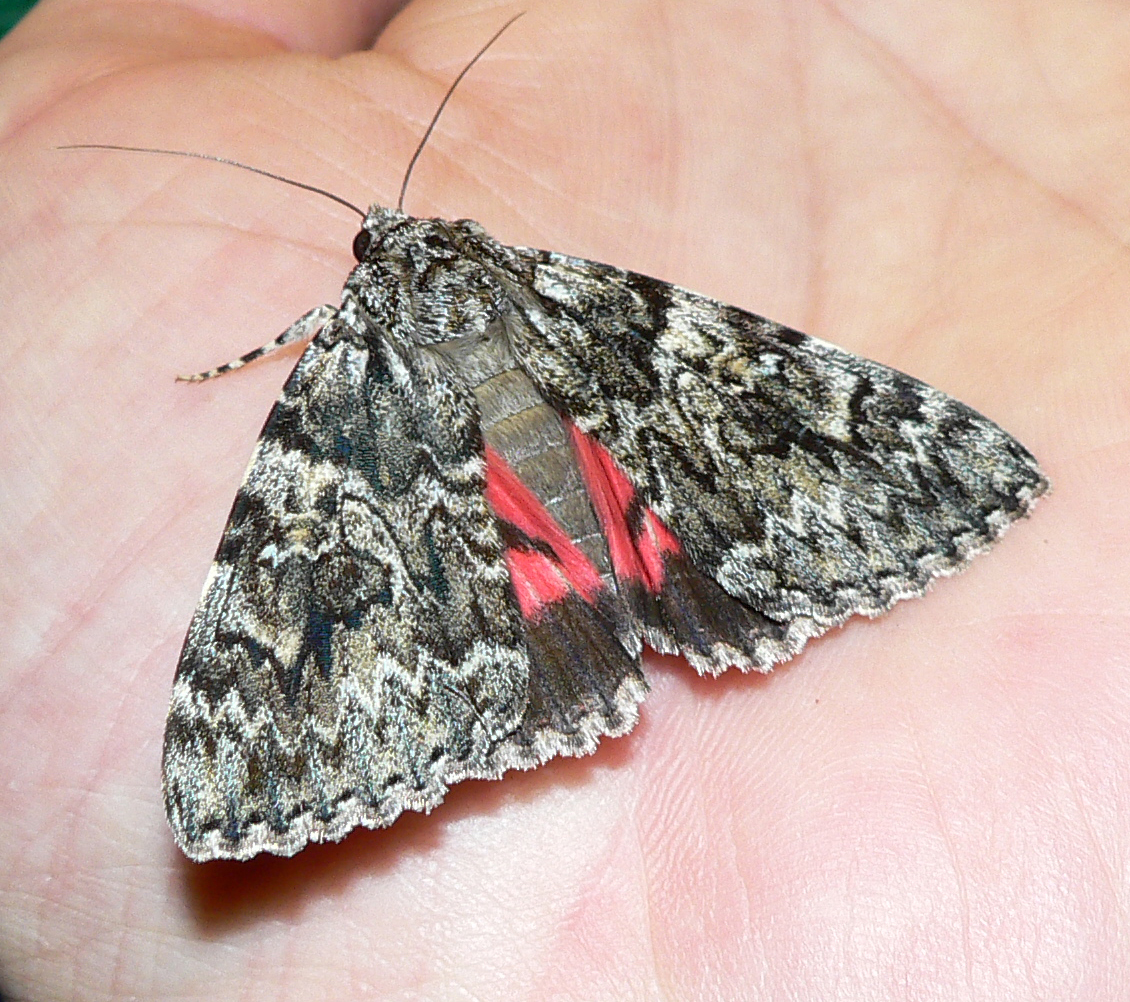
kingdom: Animalia
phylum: Arthropoda
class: Insecta
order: Lepidoptera
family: Erebidae
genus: Catocala
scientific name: Catocala promissa
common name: Light crimson underwing
